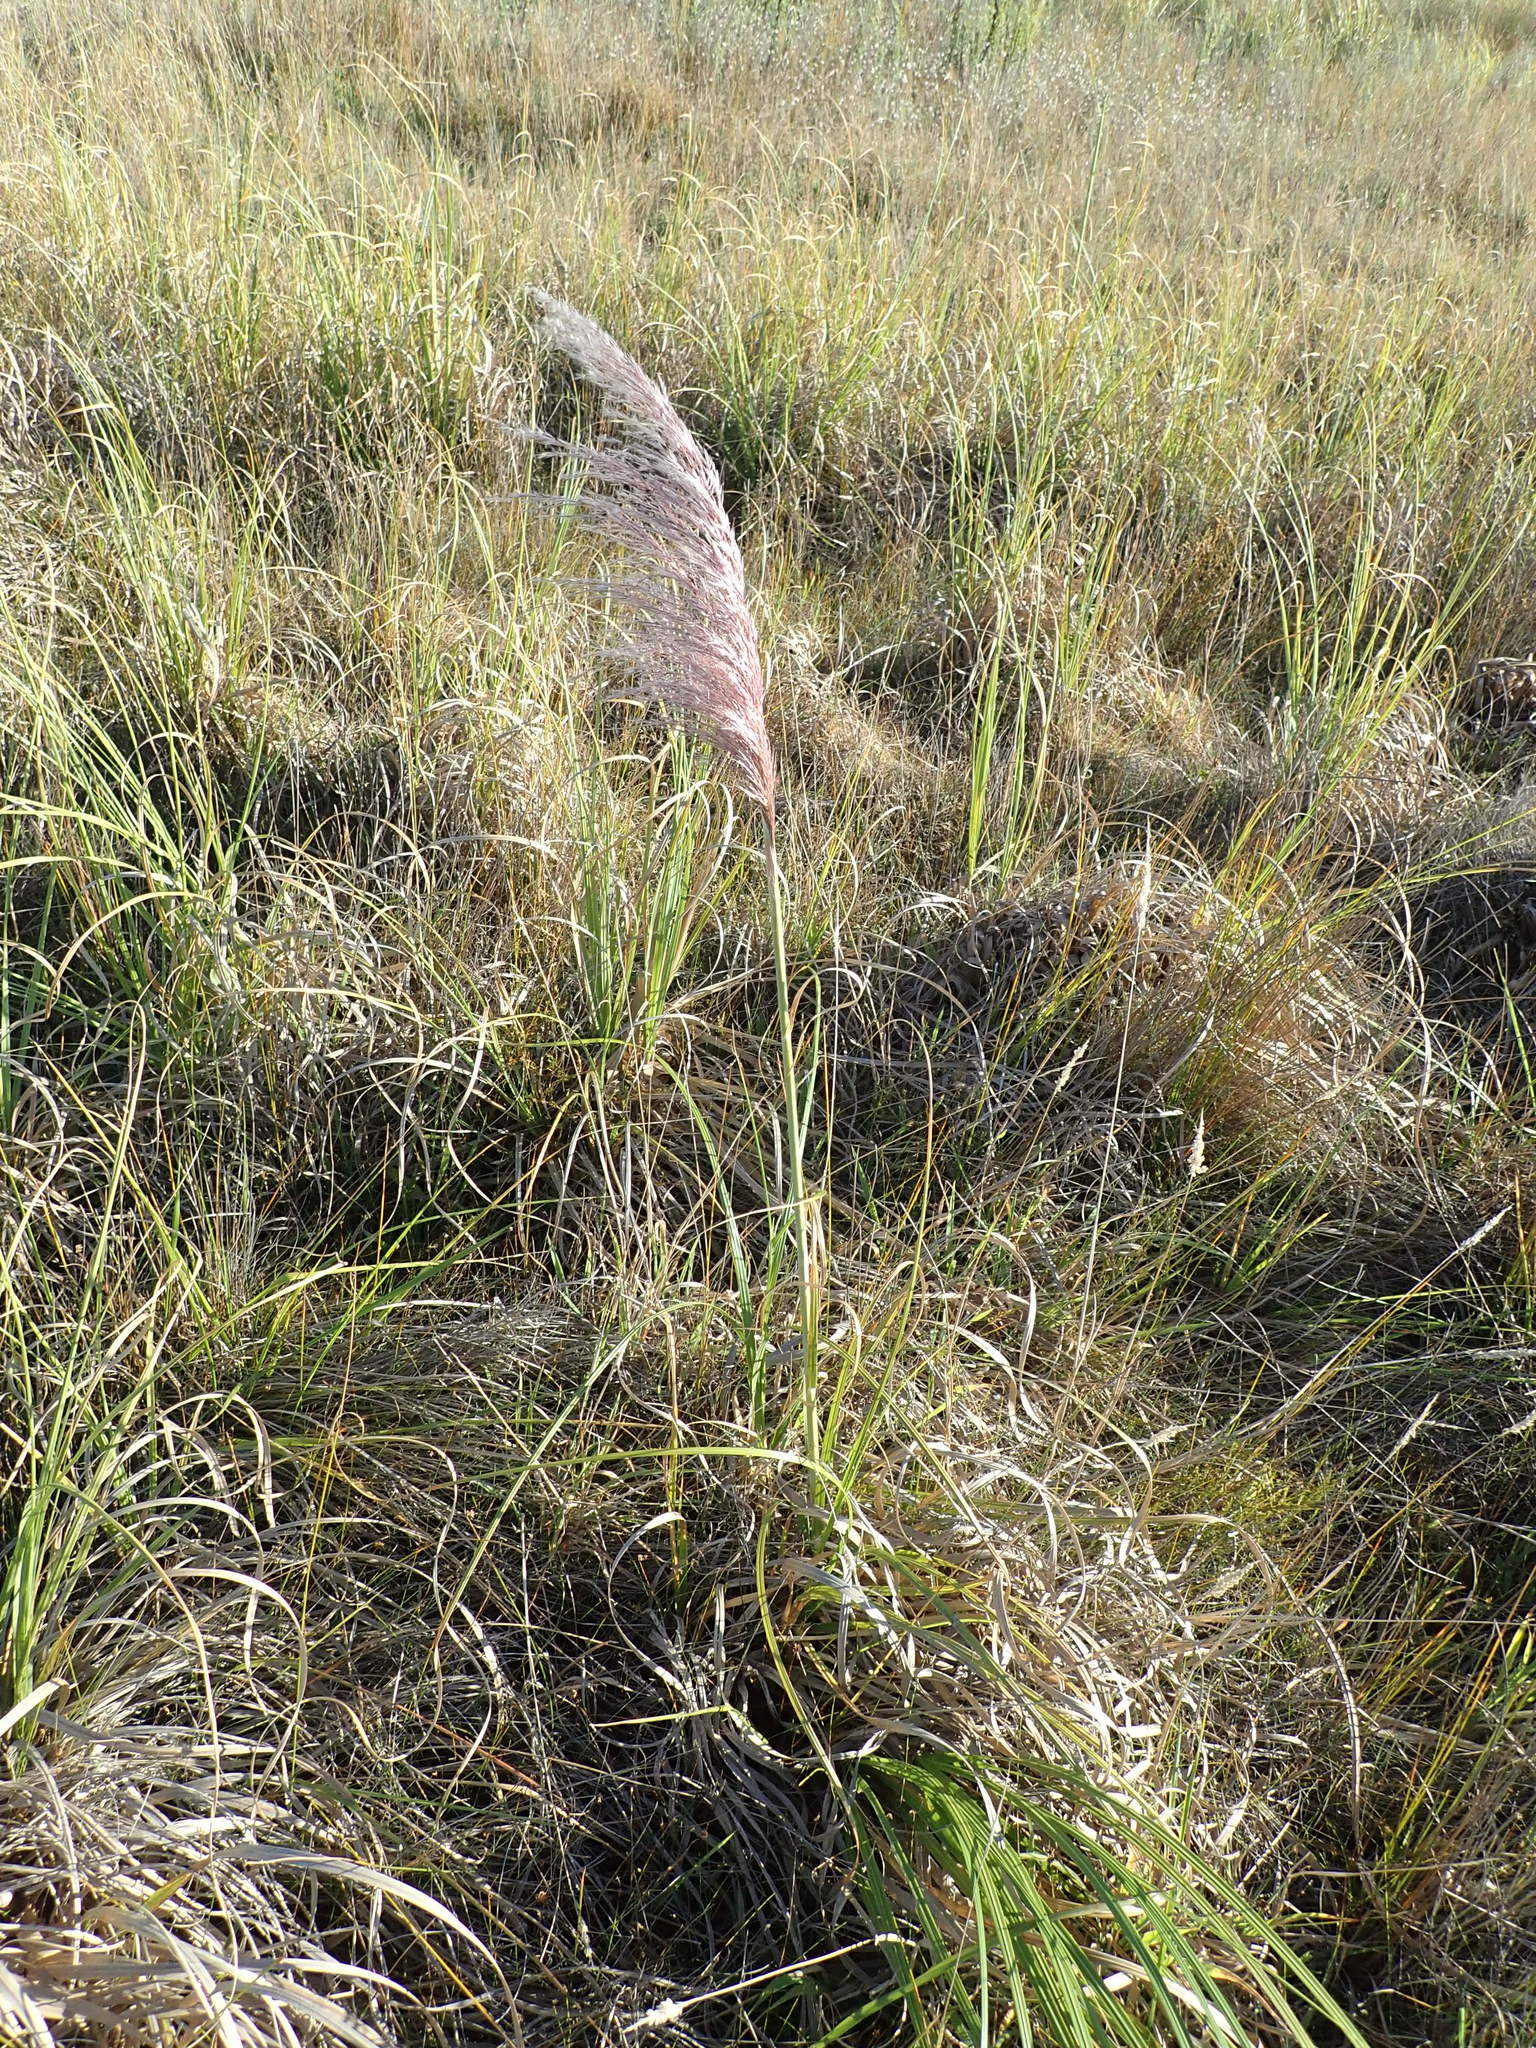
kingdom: Plantae
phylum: Tracheophyta
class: Liliopsida
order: Poales
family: Poaceae
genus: Cortaderia
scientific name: Cortaderia jubata
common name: Purple pampas grass
